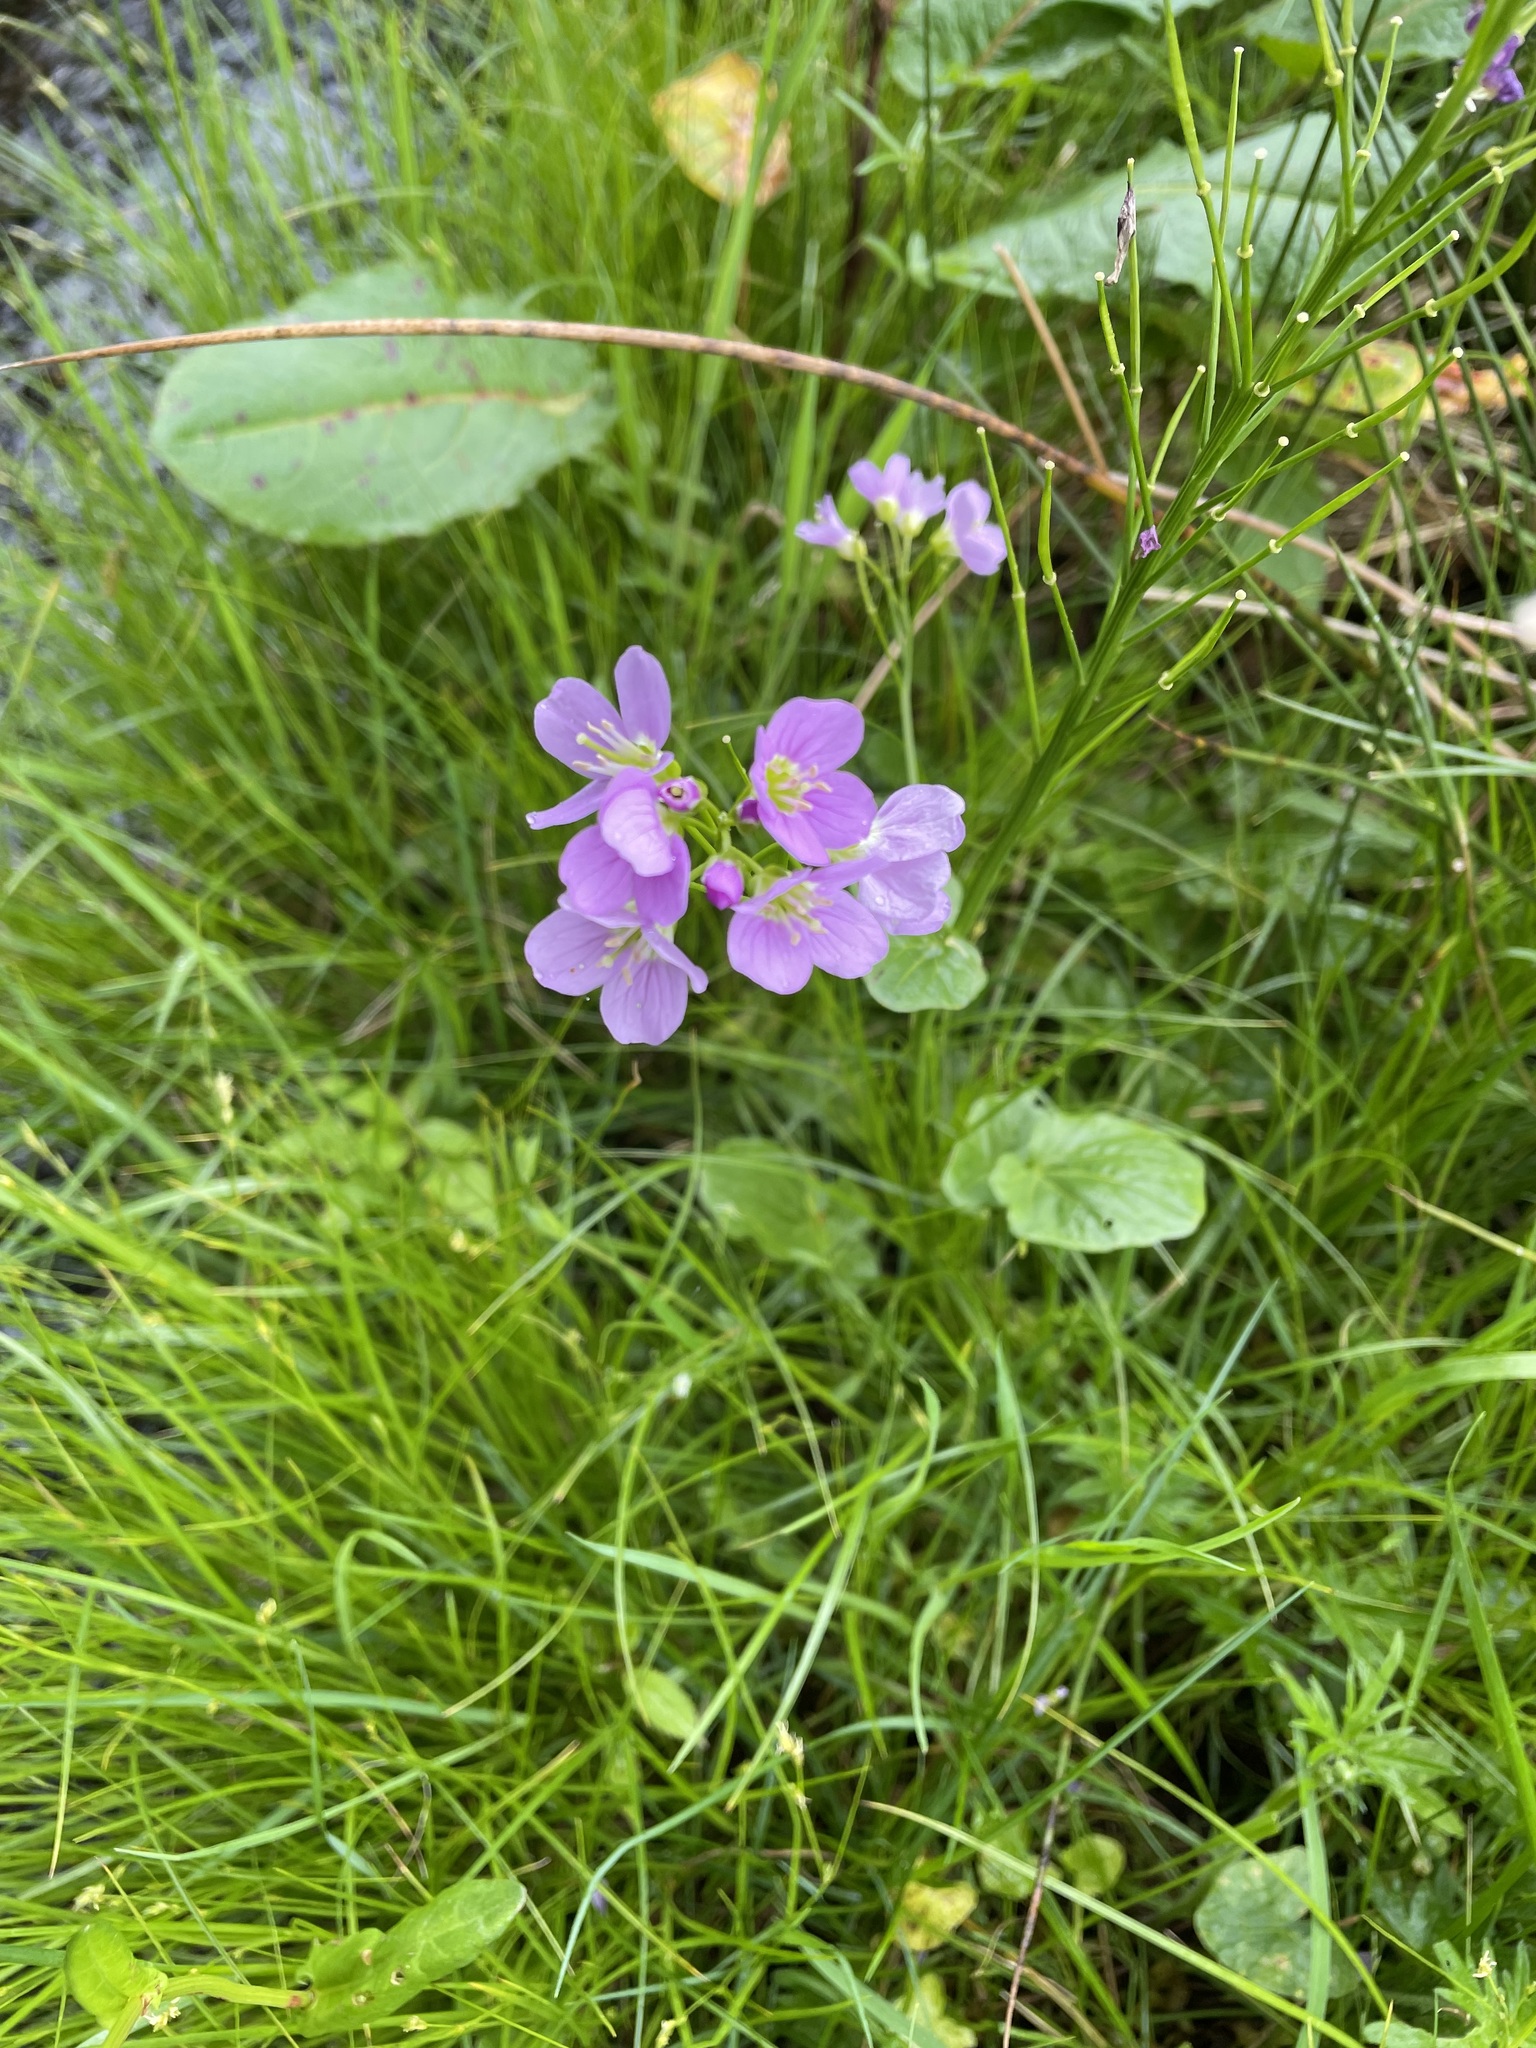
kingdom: Plantae
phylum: Tracheophyta
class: Magnoliopsida
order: Brassicales
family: Brassicaceae
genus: Cardamine
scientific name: Cardamine pratensis
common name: Cuckoo flower
